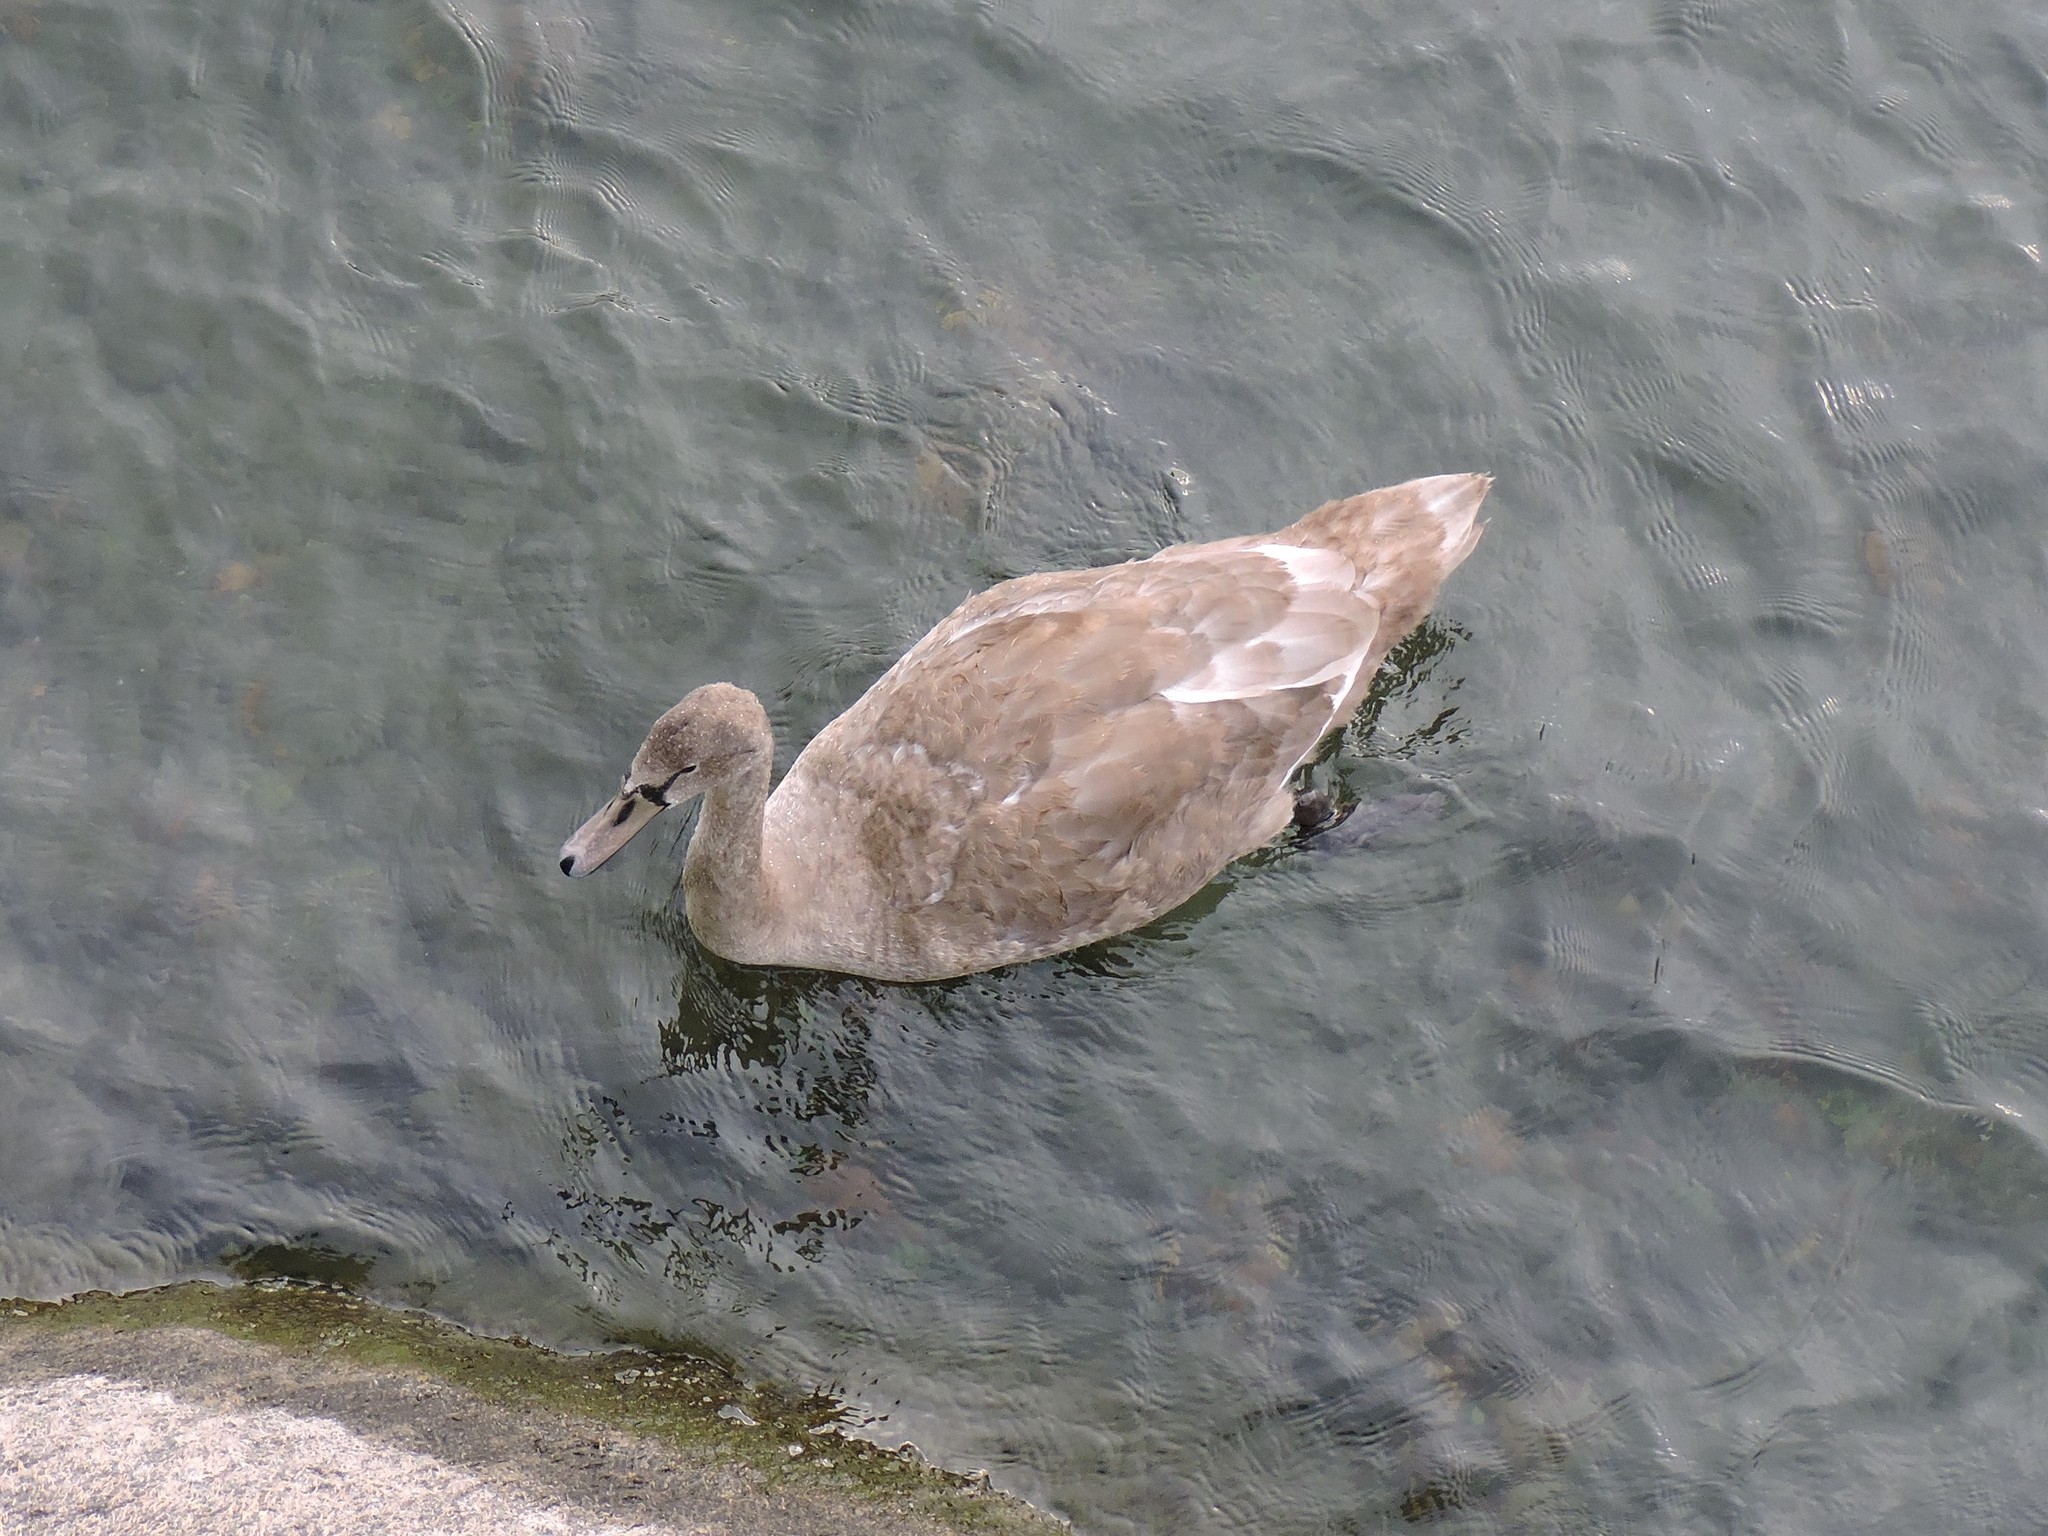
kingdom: Animalia
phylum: Chordata
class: Aves
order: Anseriformes
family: Anatidae
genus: Cygnus
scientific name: Cygnus olor
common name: Mute swan
